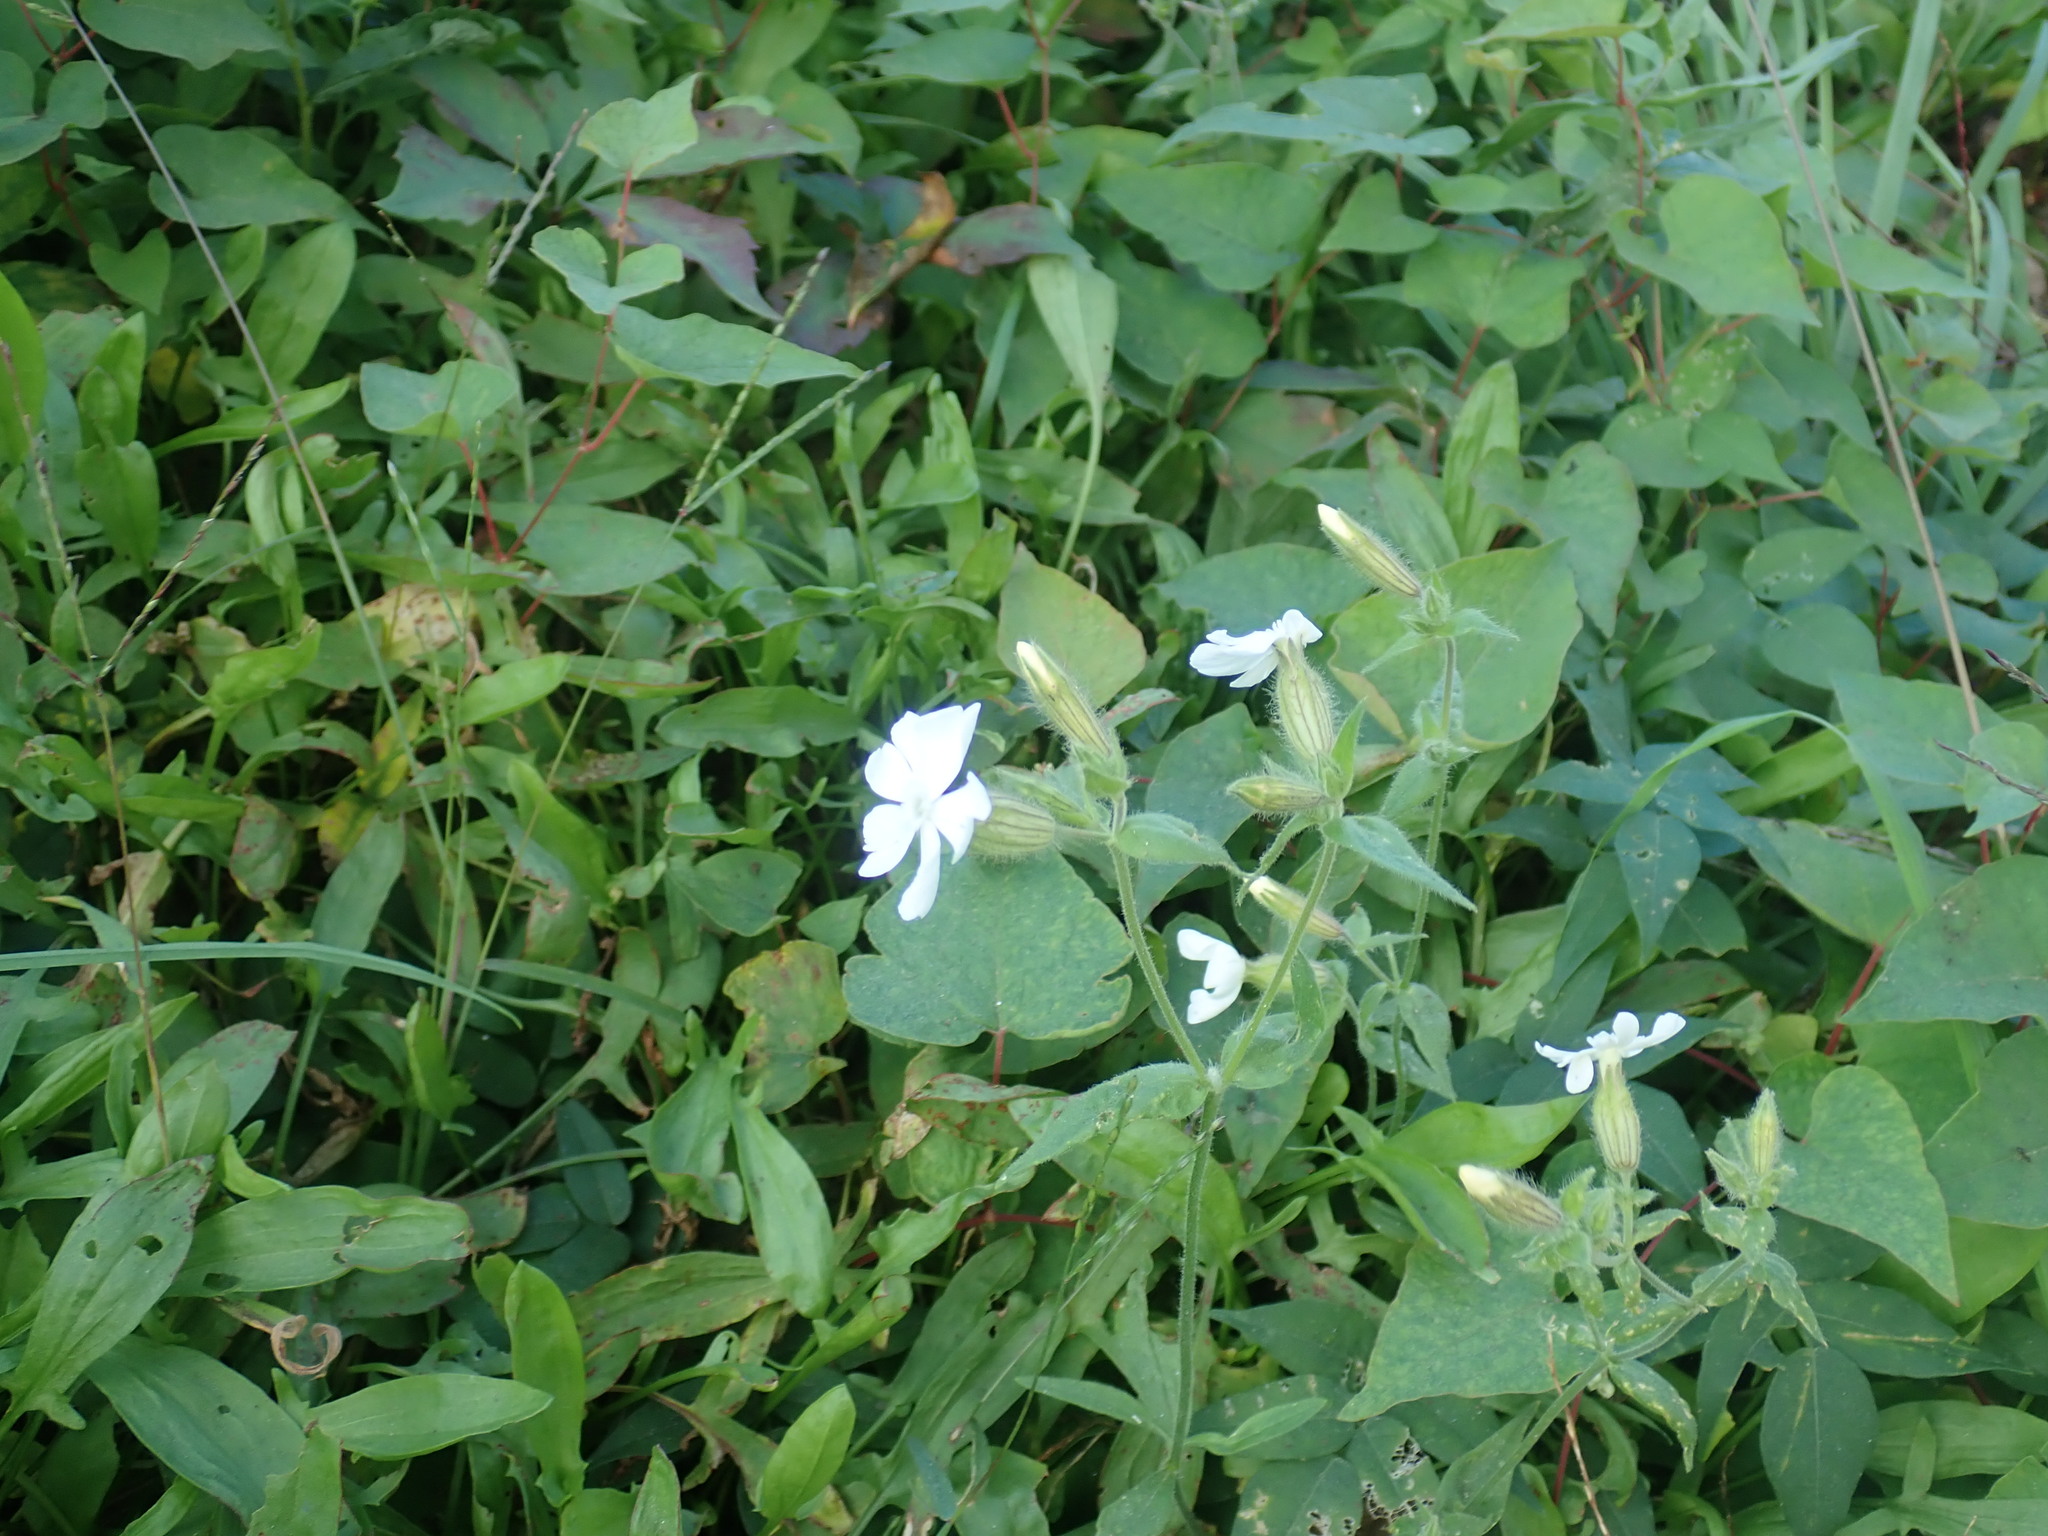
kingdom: Plantae
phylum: Tracheophyta
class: Magnoliopsida
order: Caryophyllales
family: Caryophyllaceae
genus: Silene
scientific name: Silene latifolia
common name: White campion
